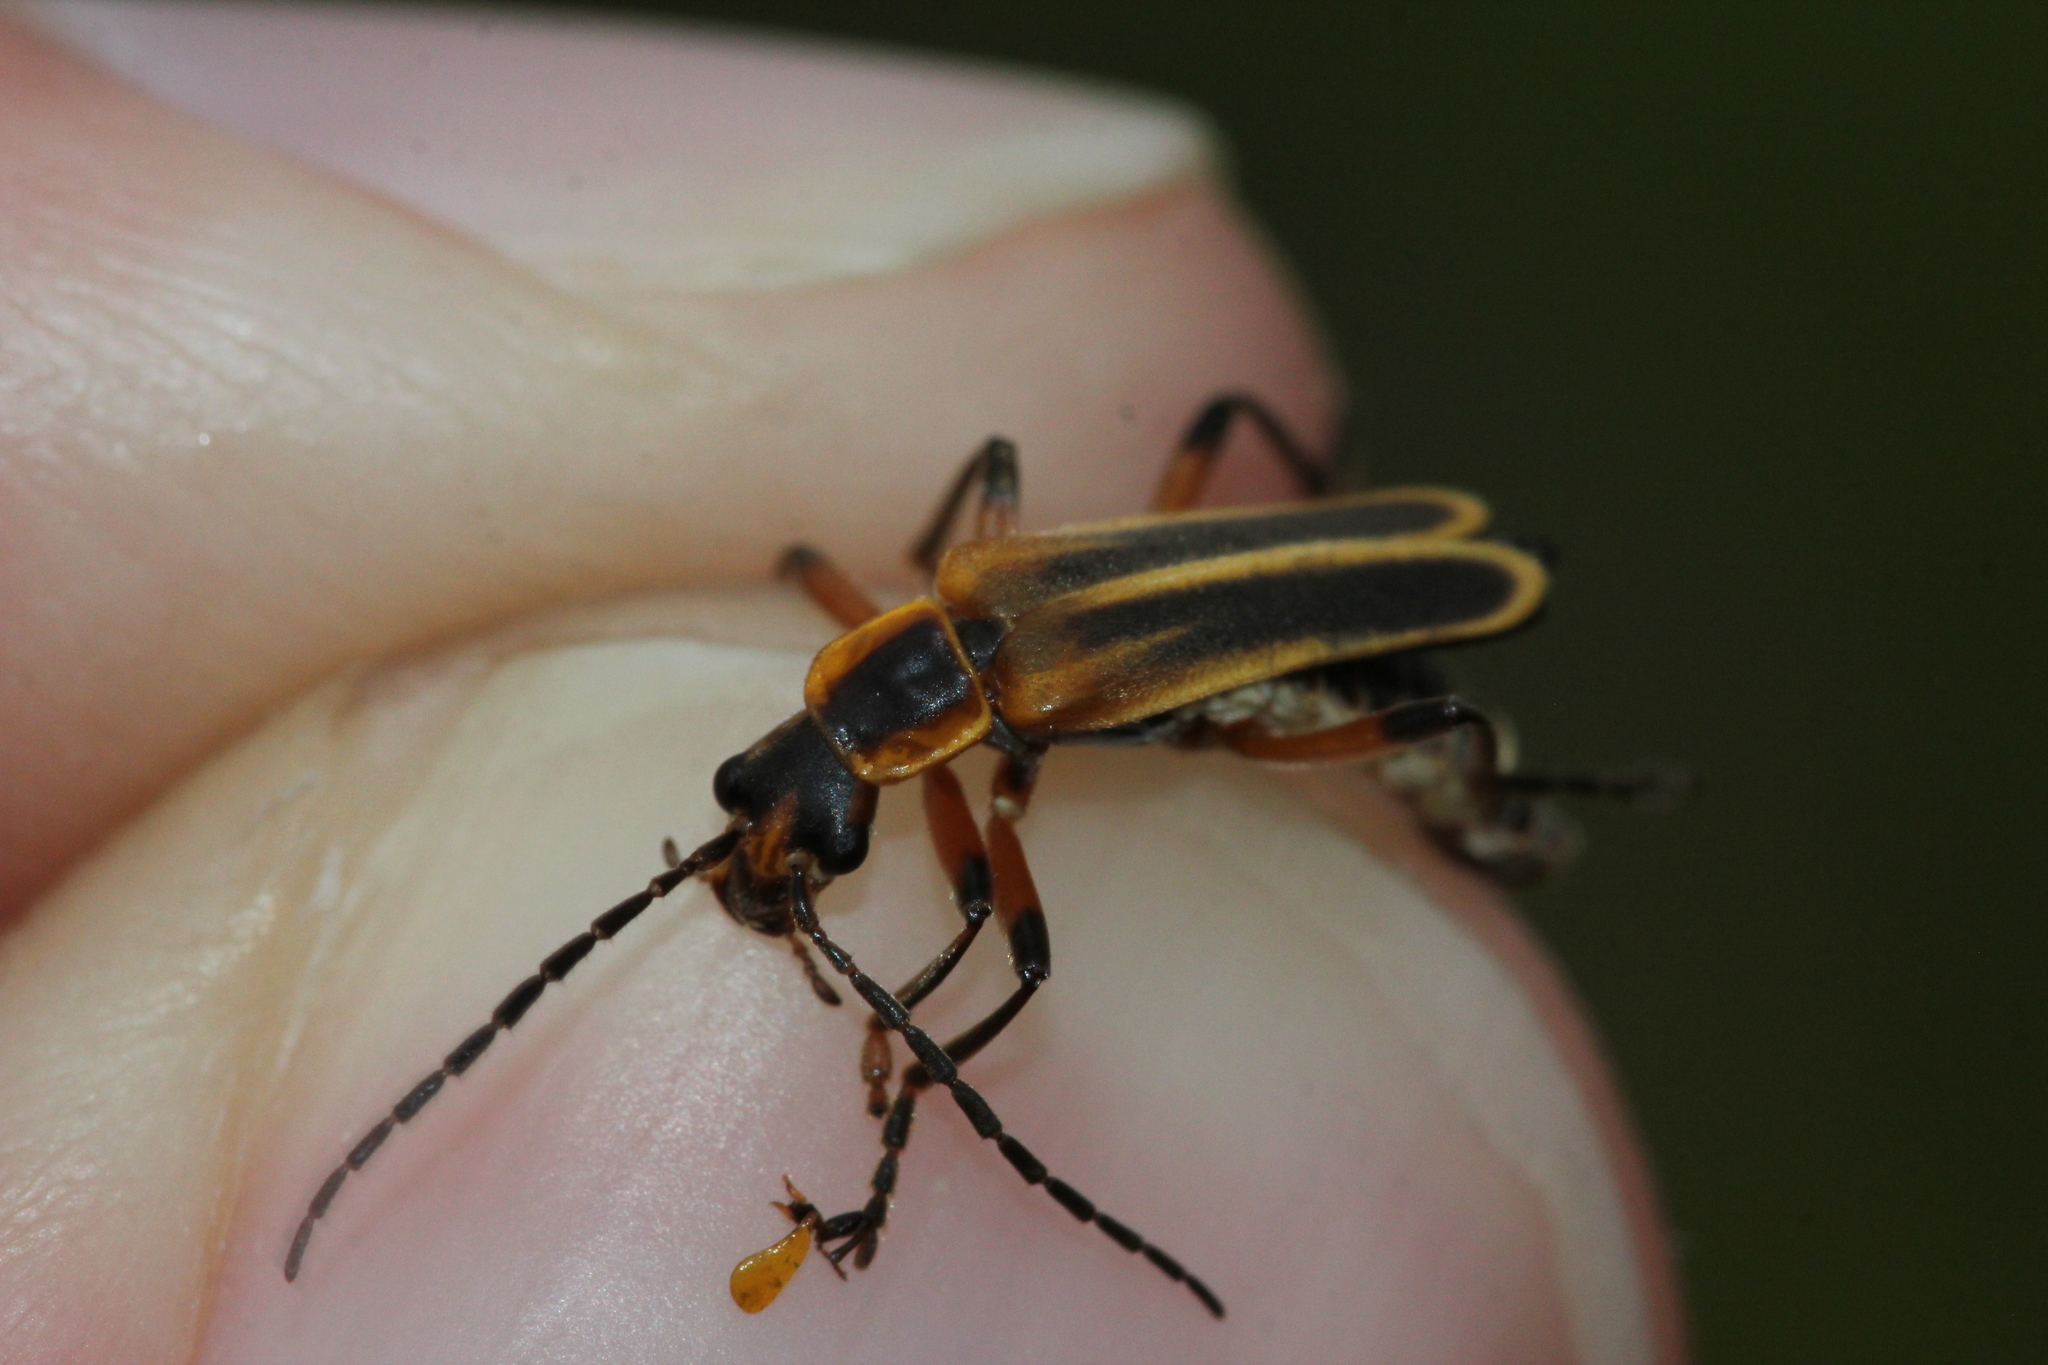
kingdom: Animalia
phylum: Arthropoda
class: Insecta
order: Coleoptera
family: Cantharidae
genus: Chauliognathus
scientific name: Chauliognathus marginatus
